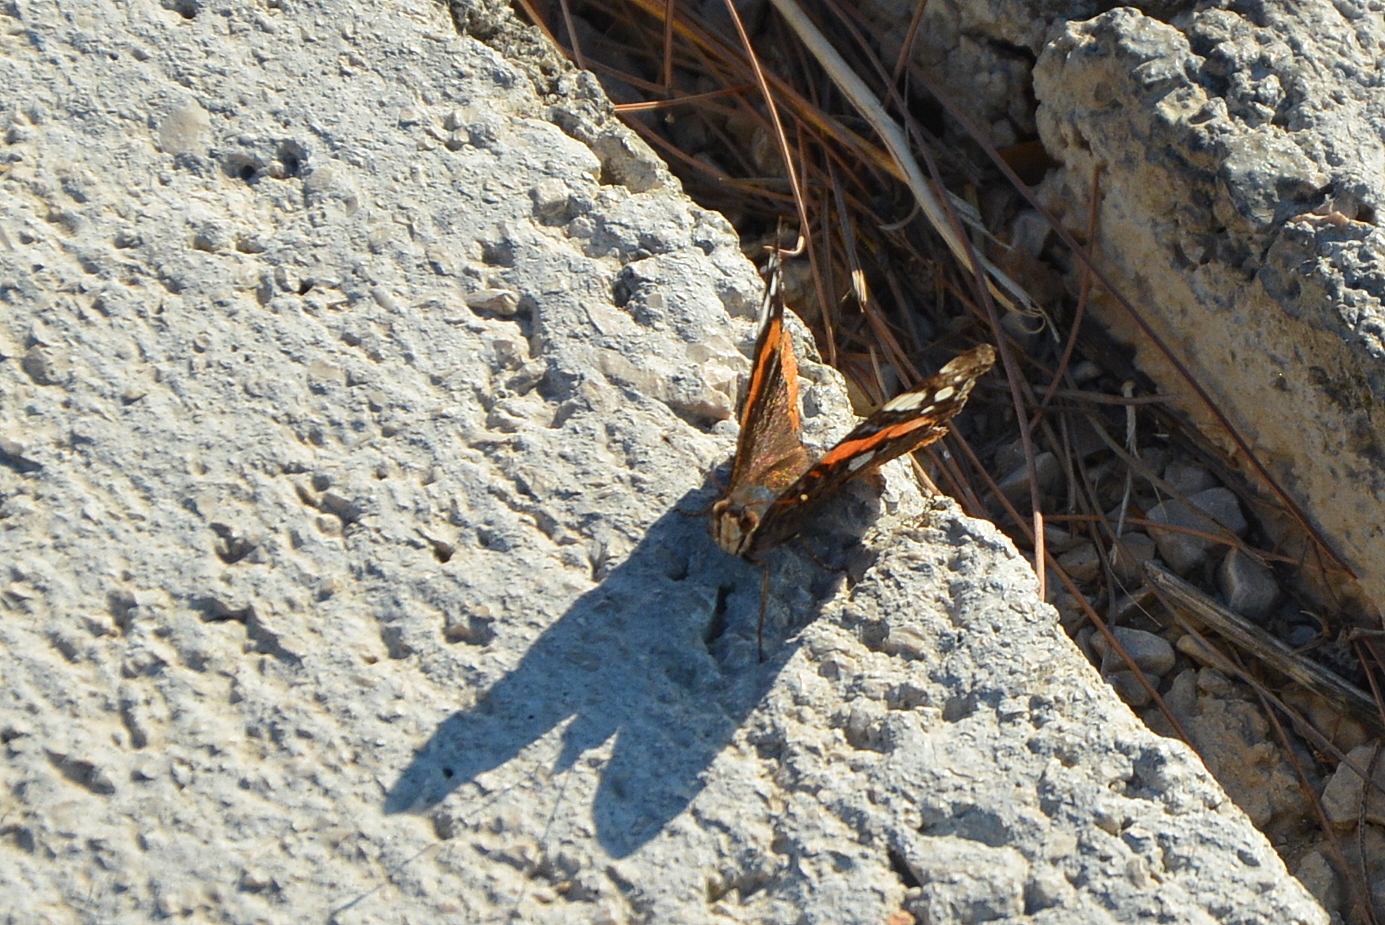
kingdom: Animalia
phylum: Arthropoda
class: Insecta
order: Lepidoptera
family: Nymphalidae
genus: Vanessa
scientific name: Vanessa atalanta
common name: Red admiral
